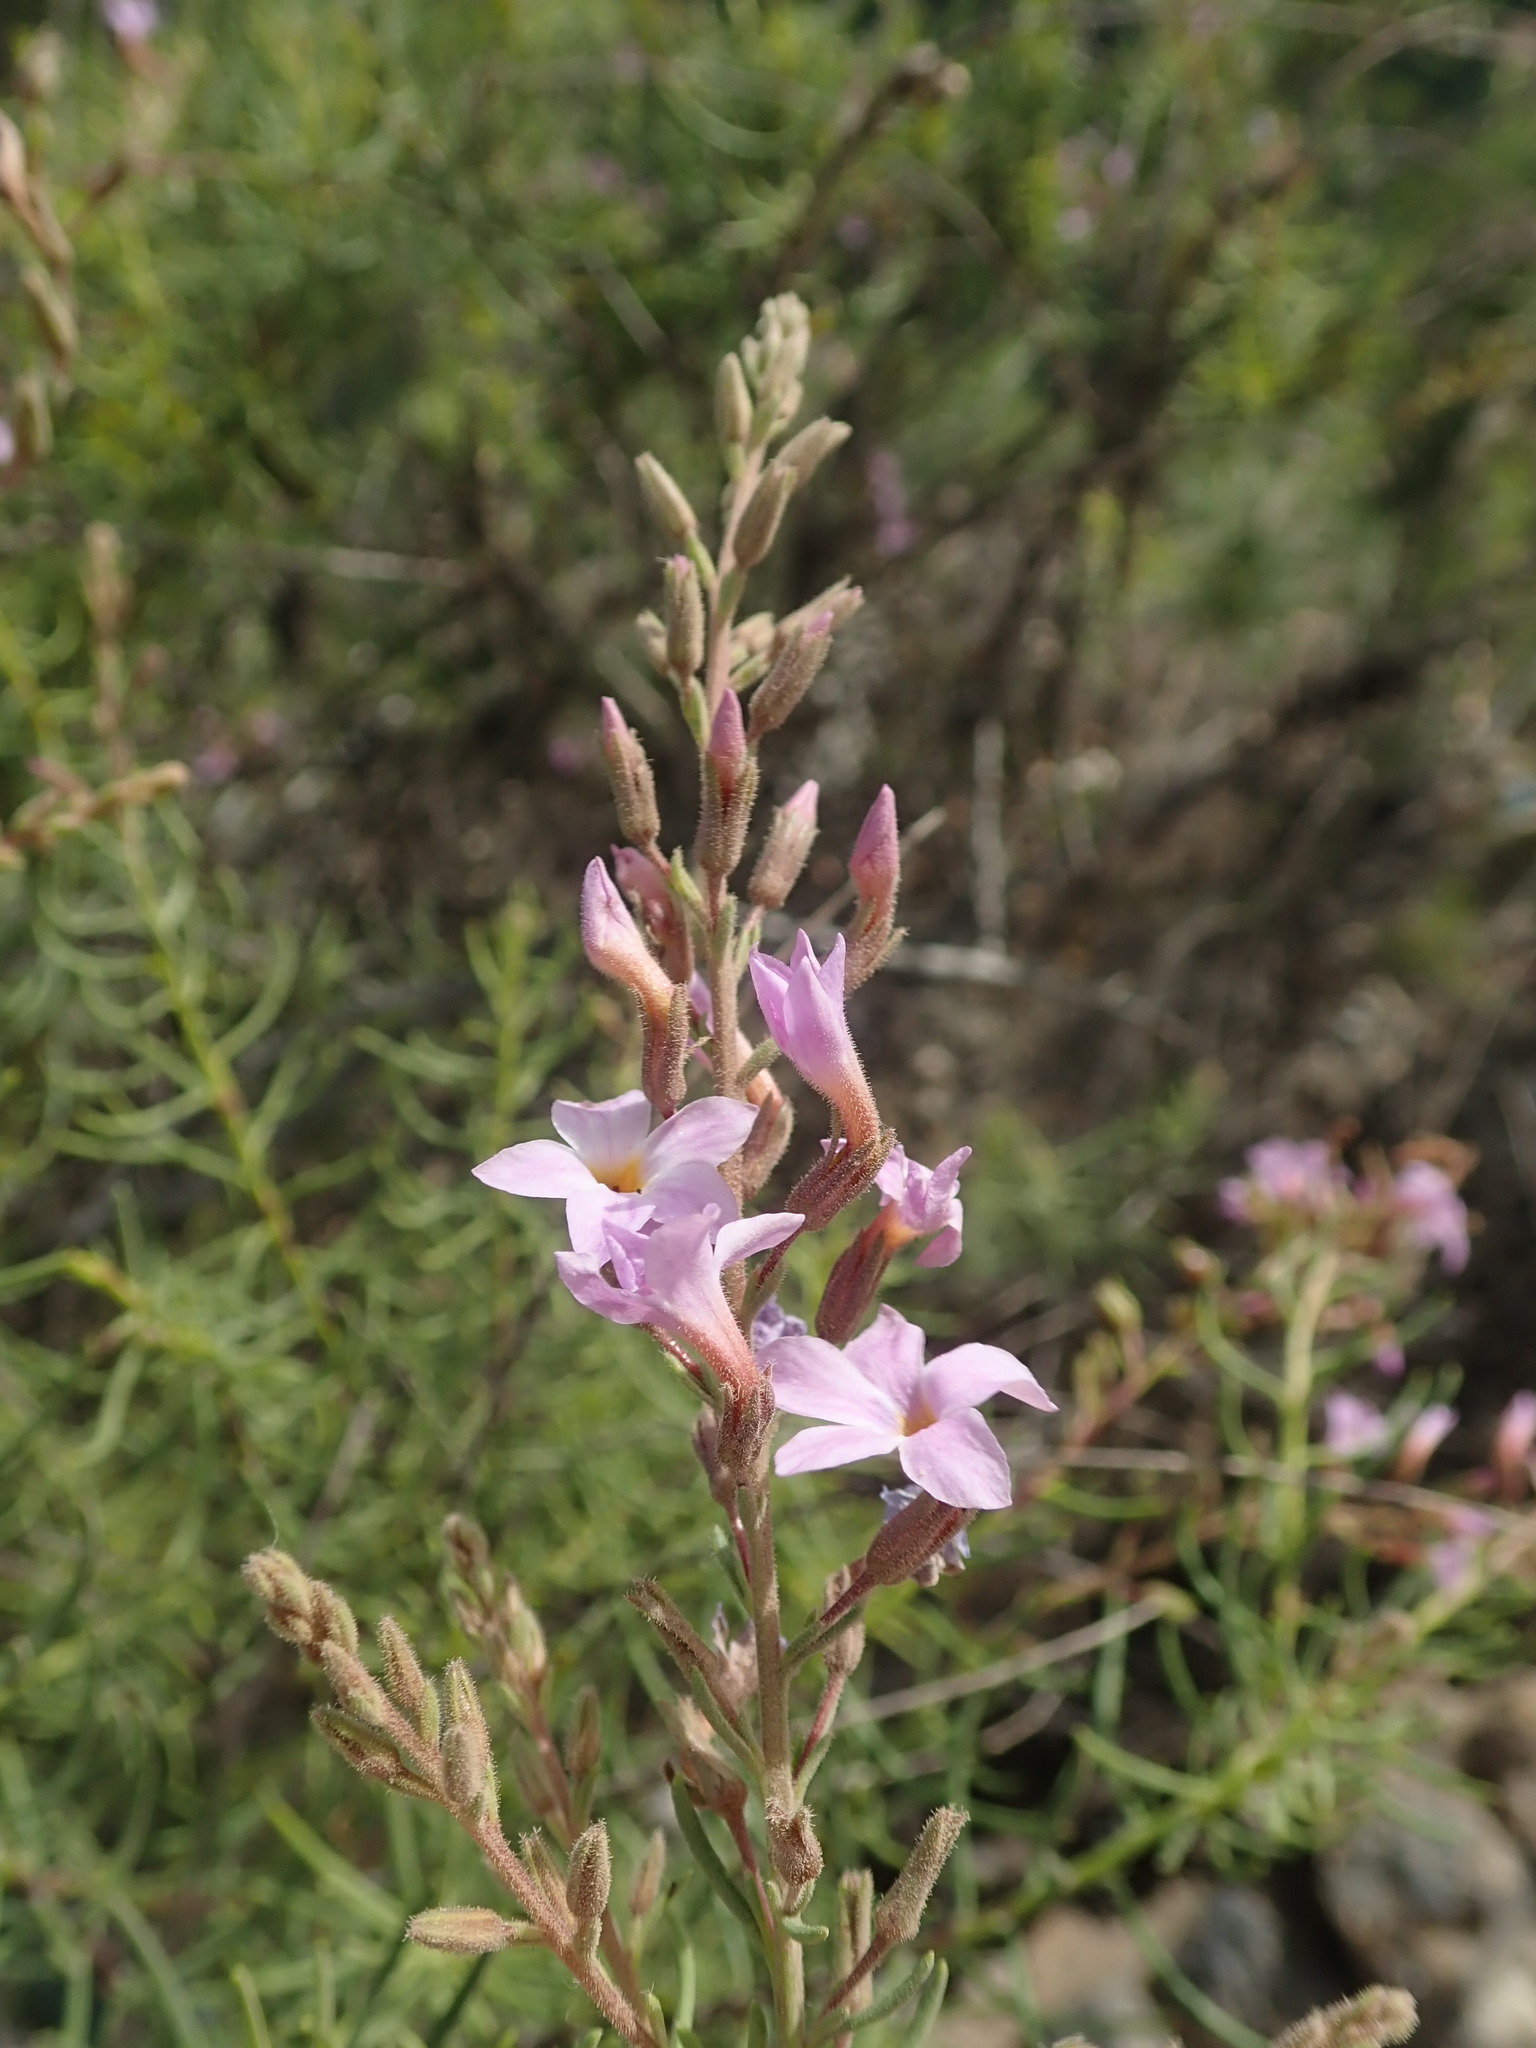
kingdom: Plantae
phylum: Tracheophyta
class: Magnoliopsida
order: Lamiales
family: Plantaginaceae
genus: Campylanthus
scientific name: Campylanthus salsoloides
